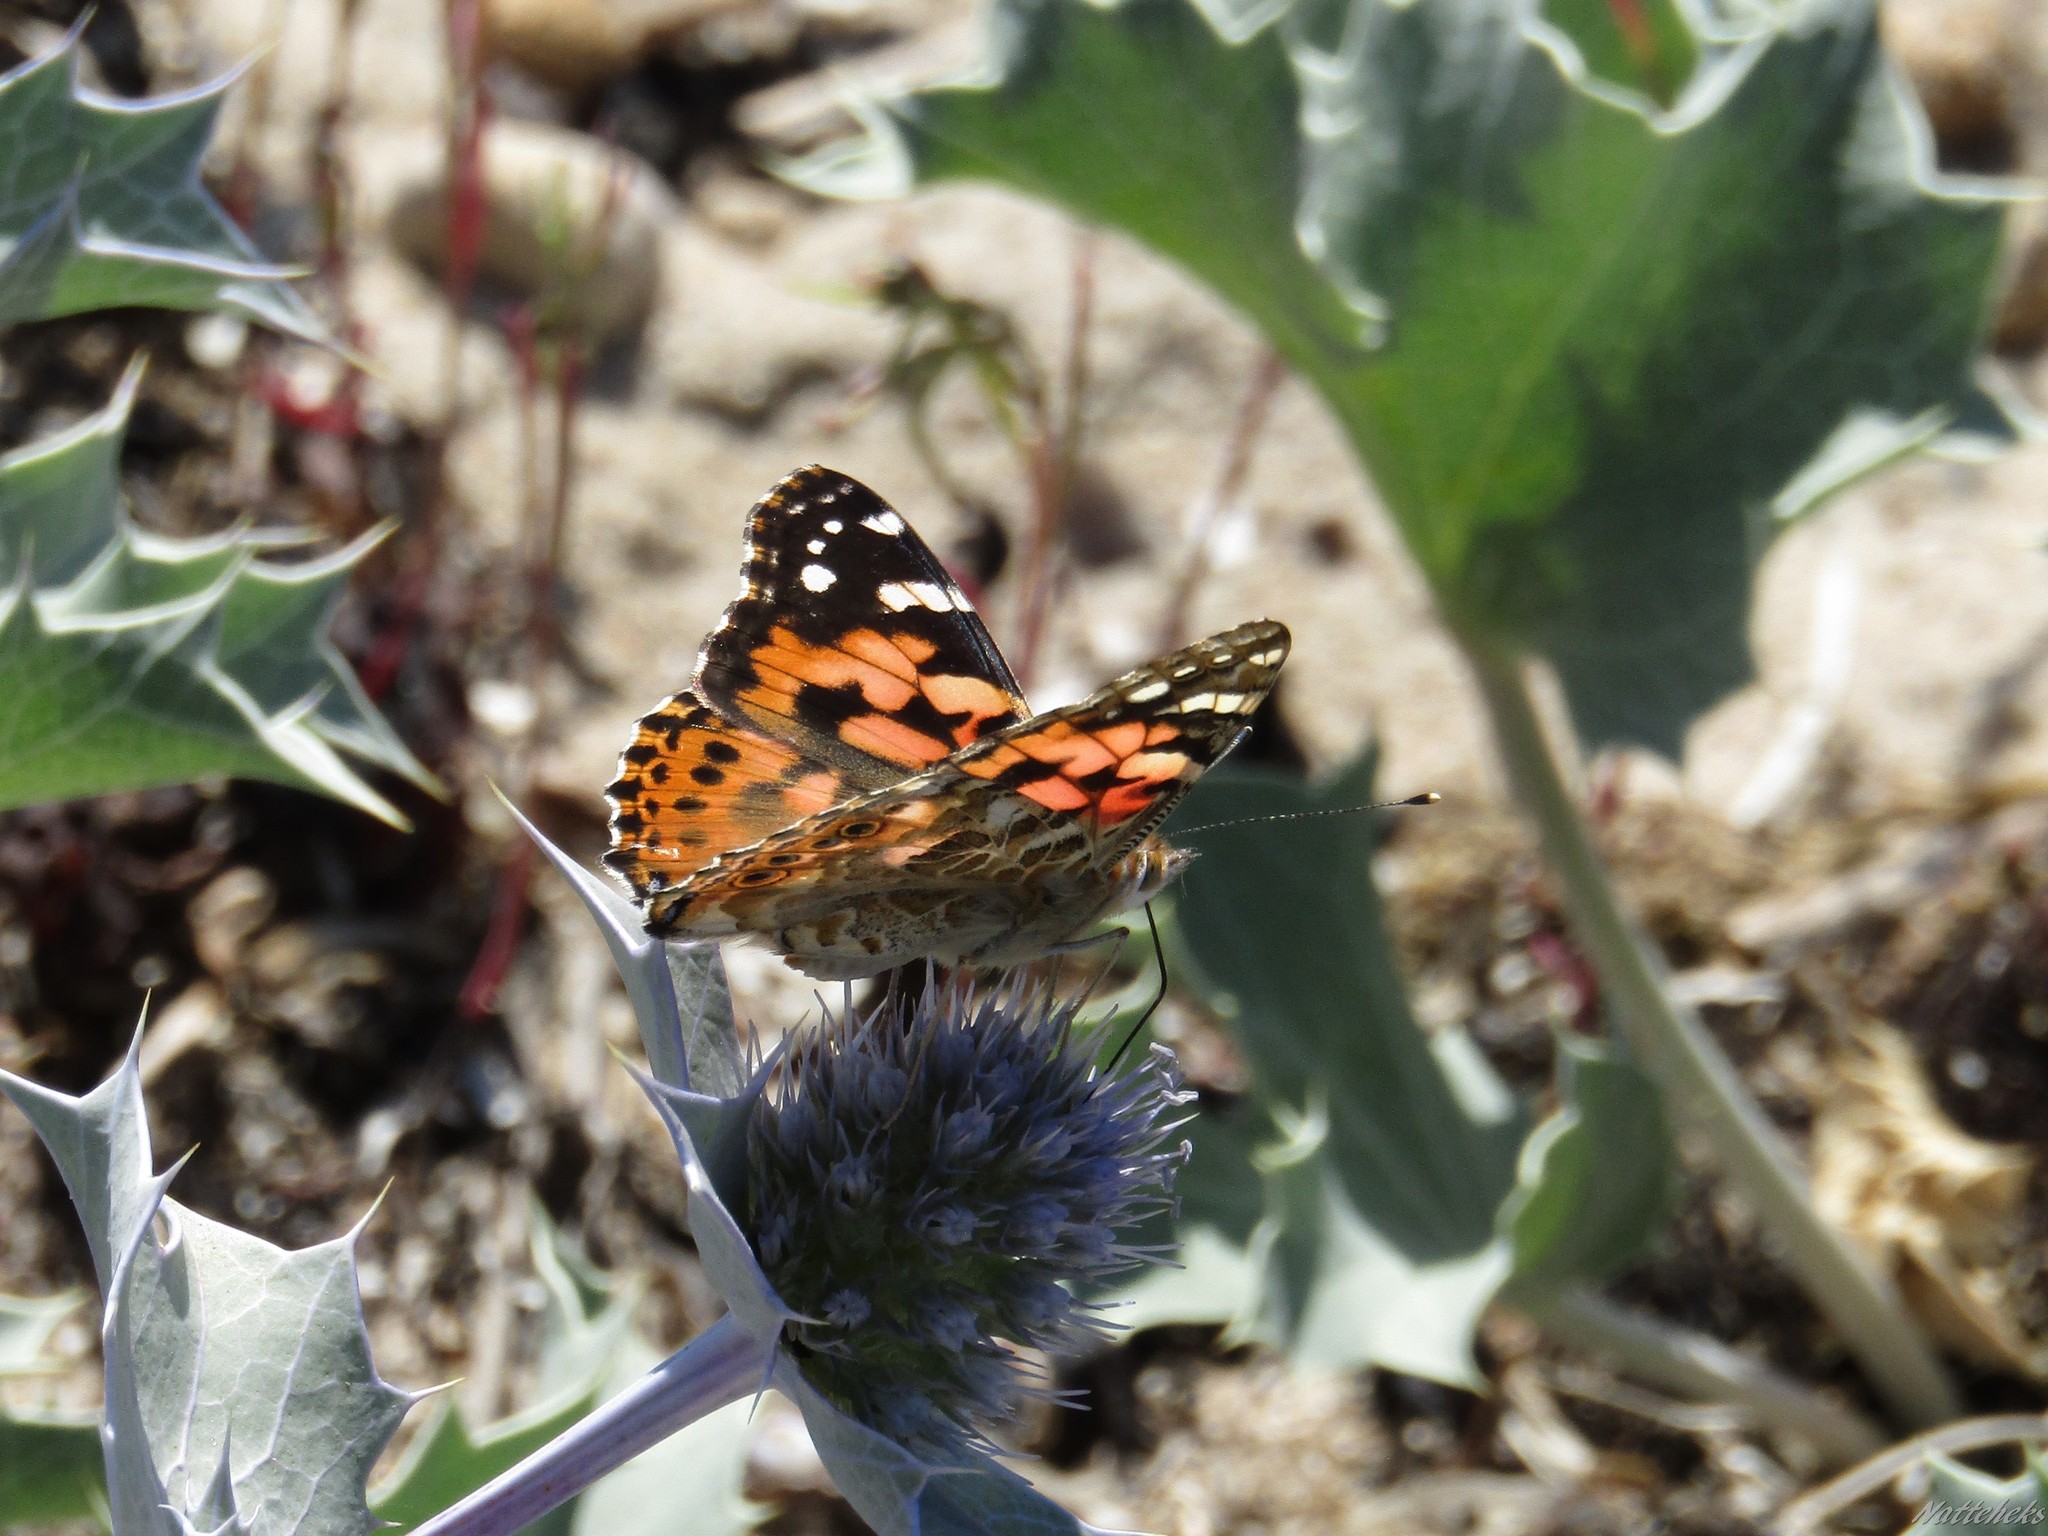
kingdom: Animalia
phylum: Arthropoda
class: Insecta
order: Lepidoptera
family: Nymphalidae
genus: Vanessa
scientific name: Vanessa cardui
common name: Painted lady
